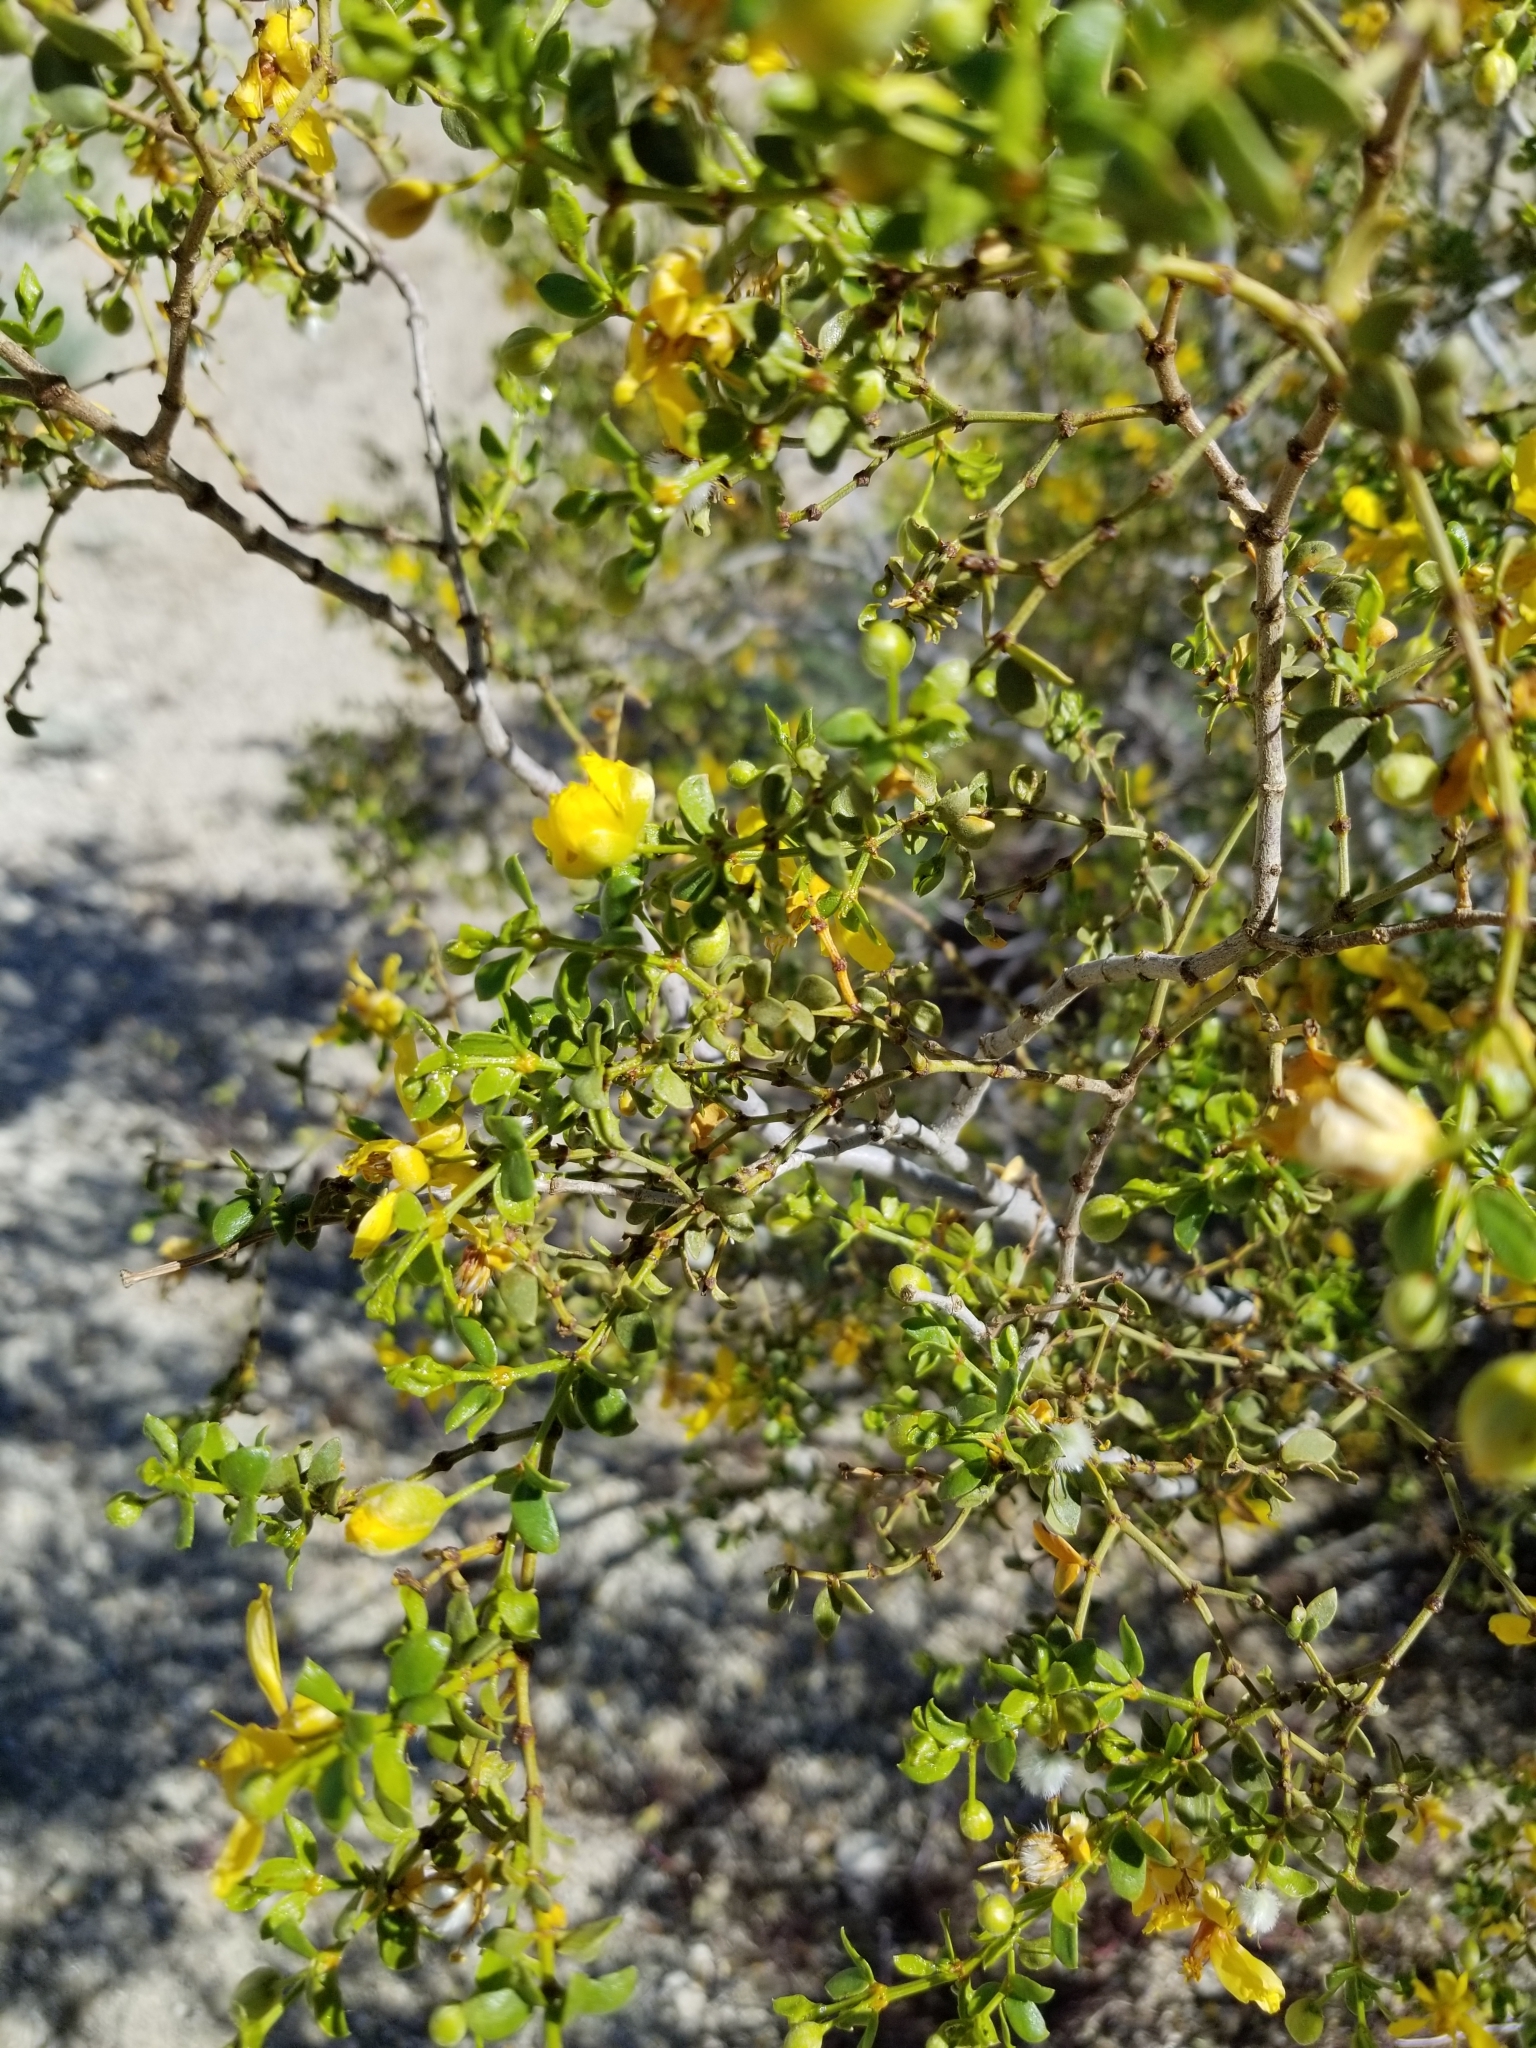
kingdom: Plantae
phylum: Tracheophyta
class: Magnoliopsida
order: Zygophyllales
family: Zygophyllaceae
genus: Larrea
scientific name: Larrea tridentata
